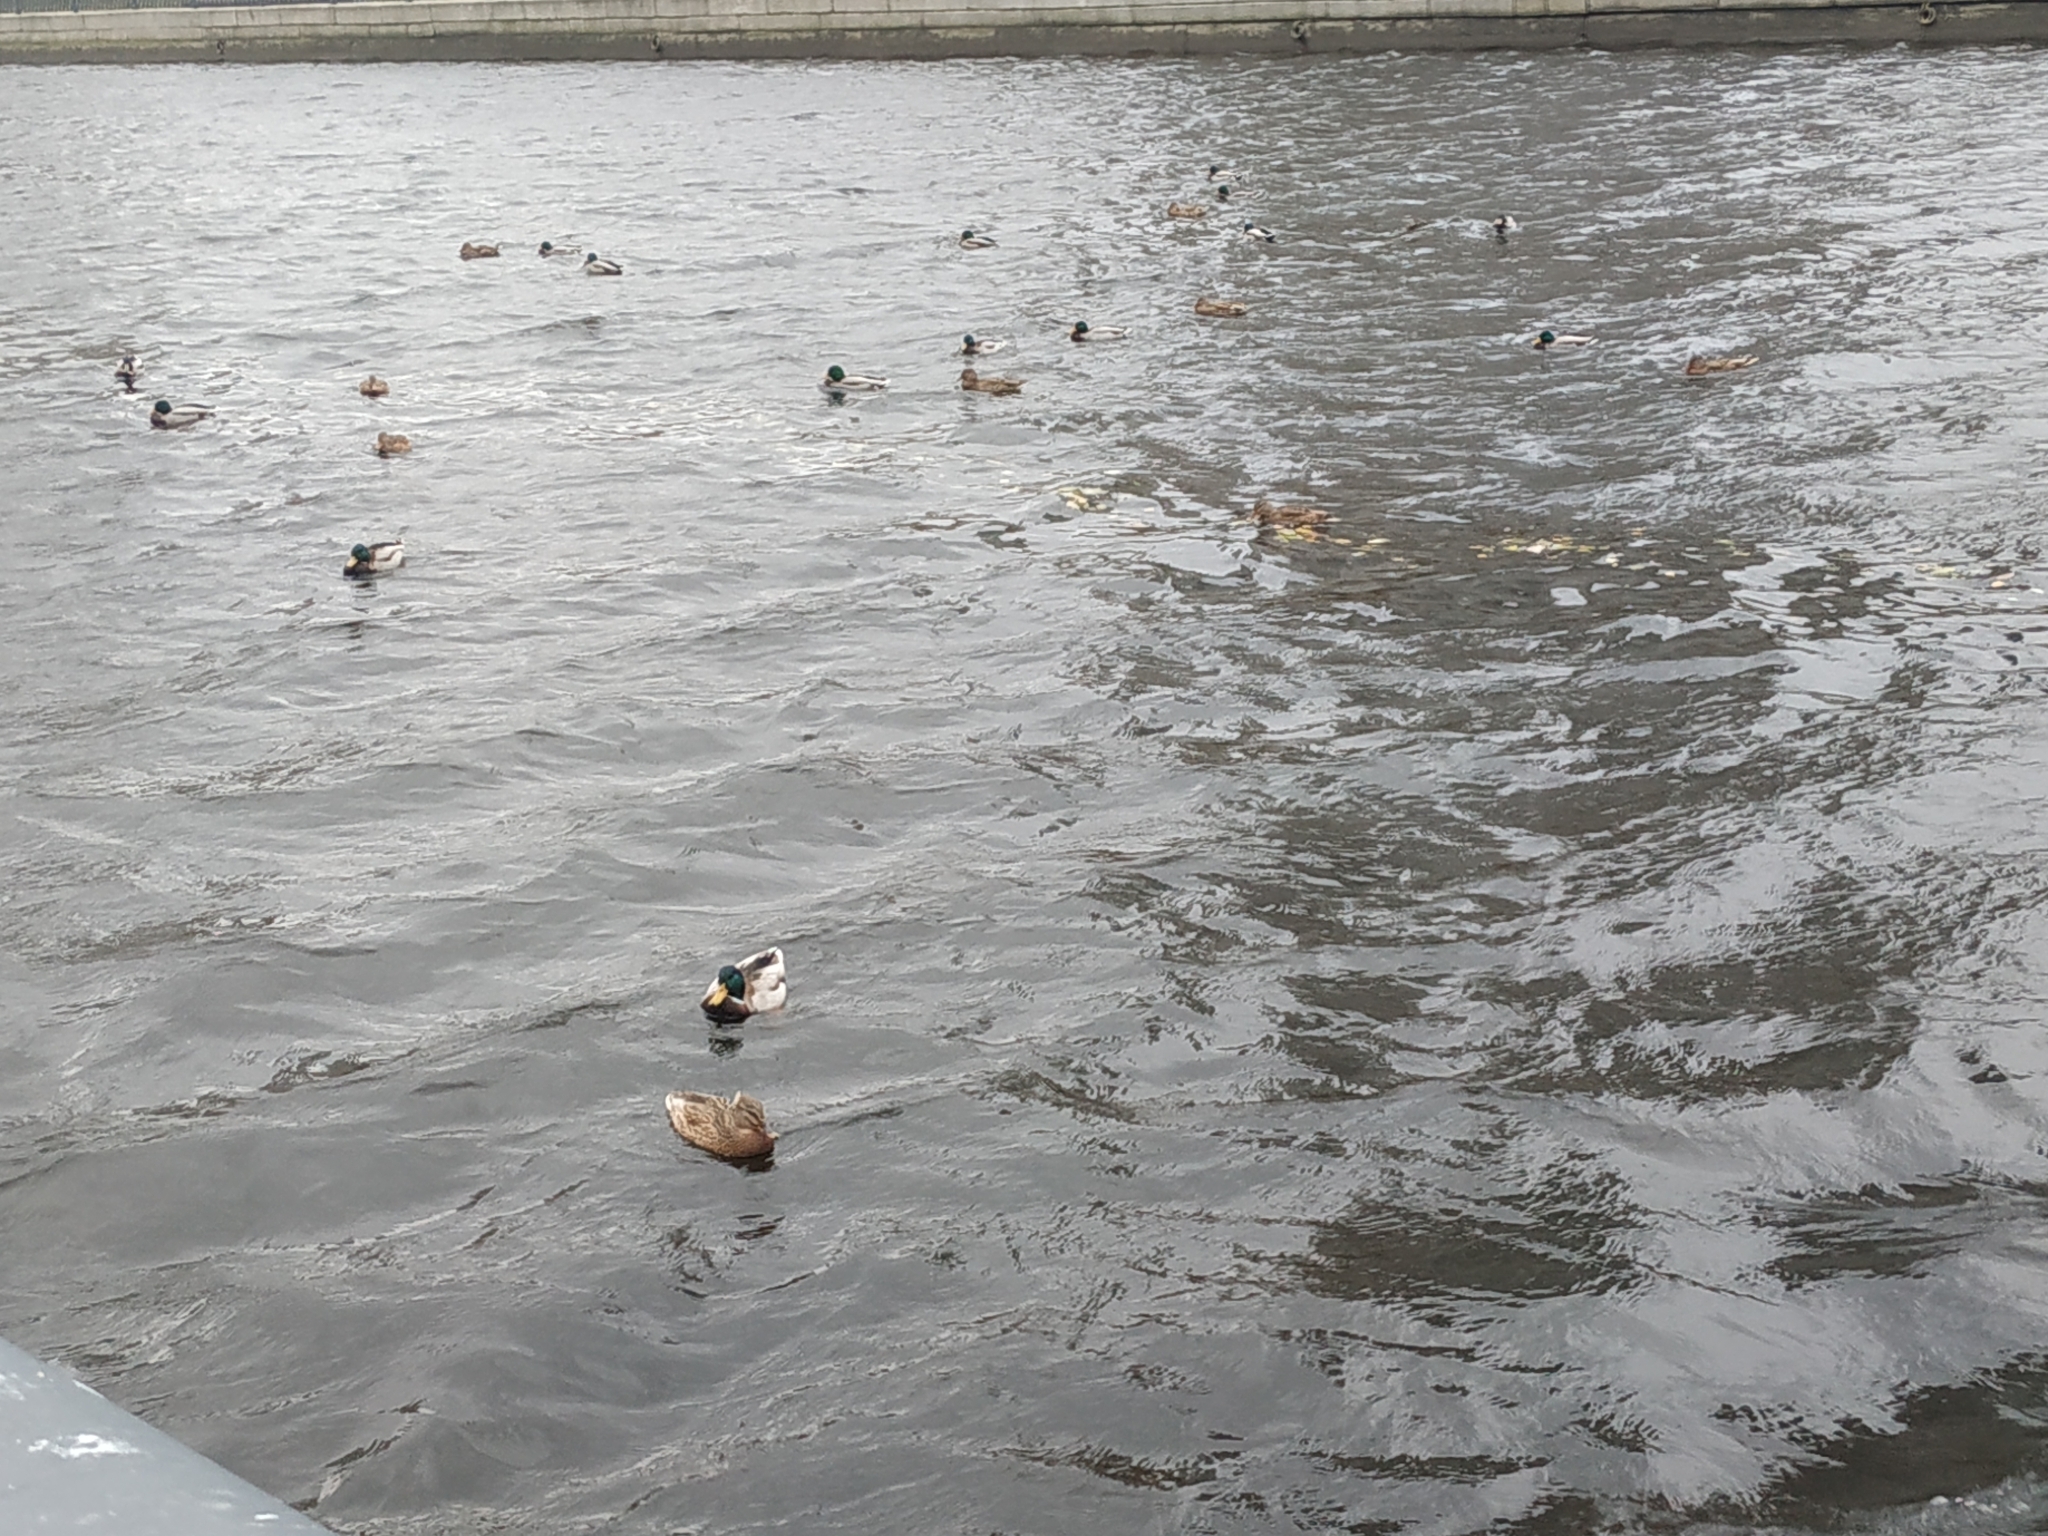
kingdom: Animalia
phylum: Chordata
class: Aves
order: Anseriformes
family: Anatidae
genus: Anas
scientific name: Anas platyrhynchos
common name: Mallard
